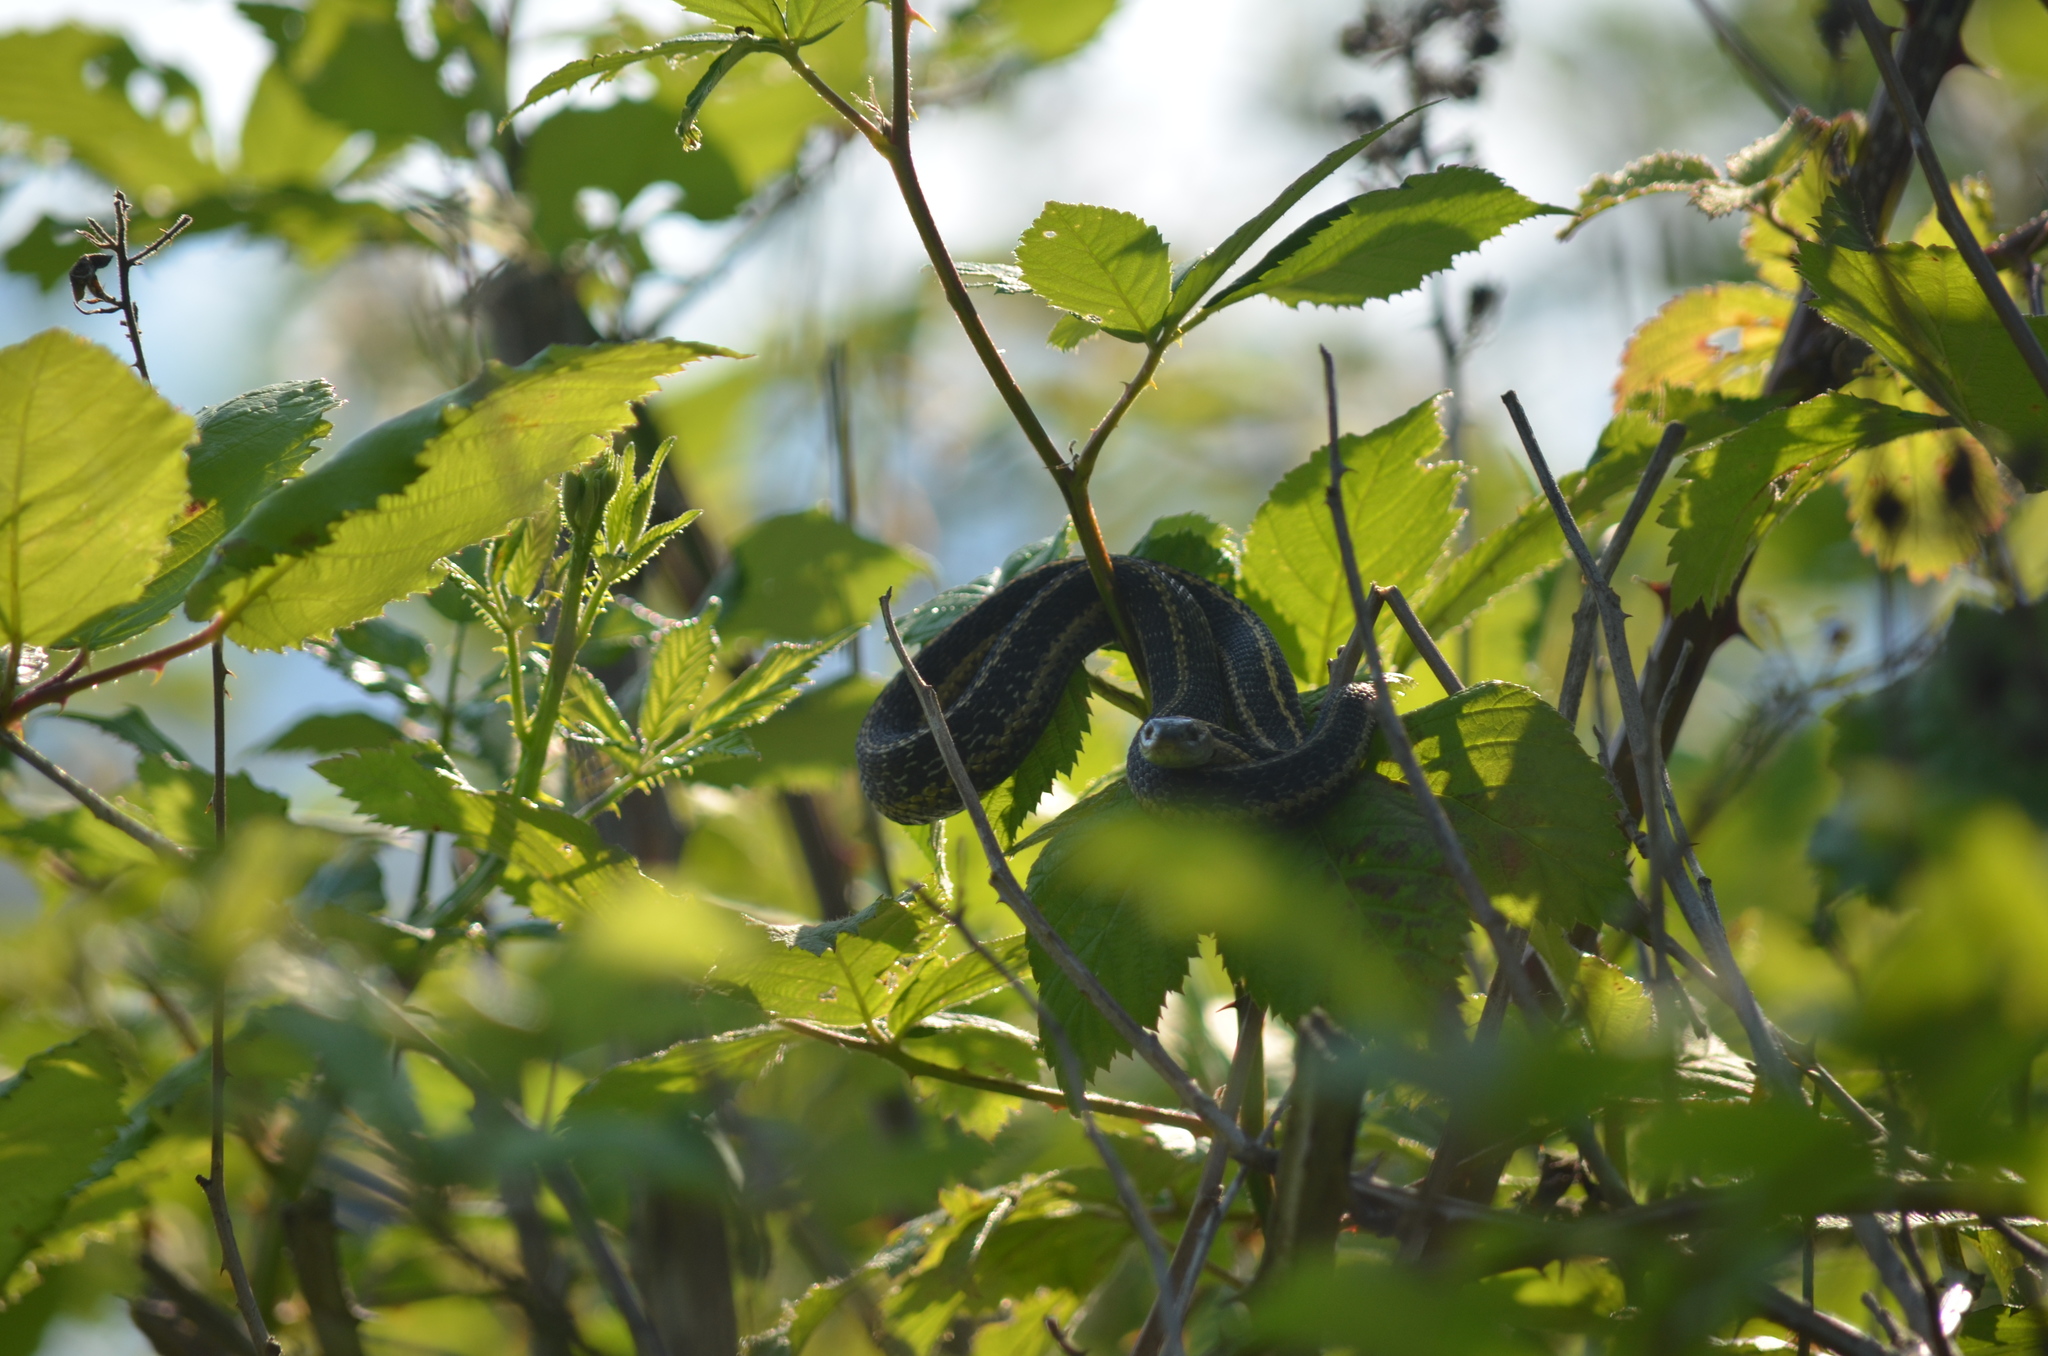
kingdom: Animalia
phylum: Chordata
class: Squamata
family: Colubridae
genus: Thamnophis
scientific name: Thamnophis elegans
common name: Western terrestrial garter snake
